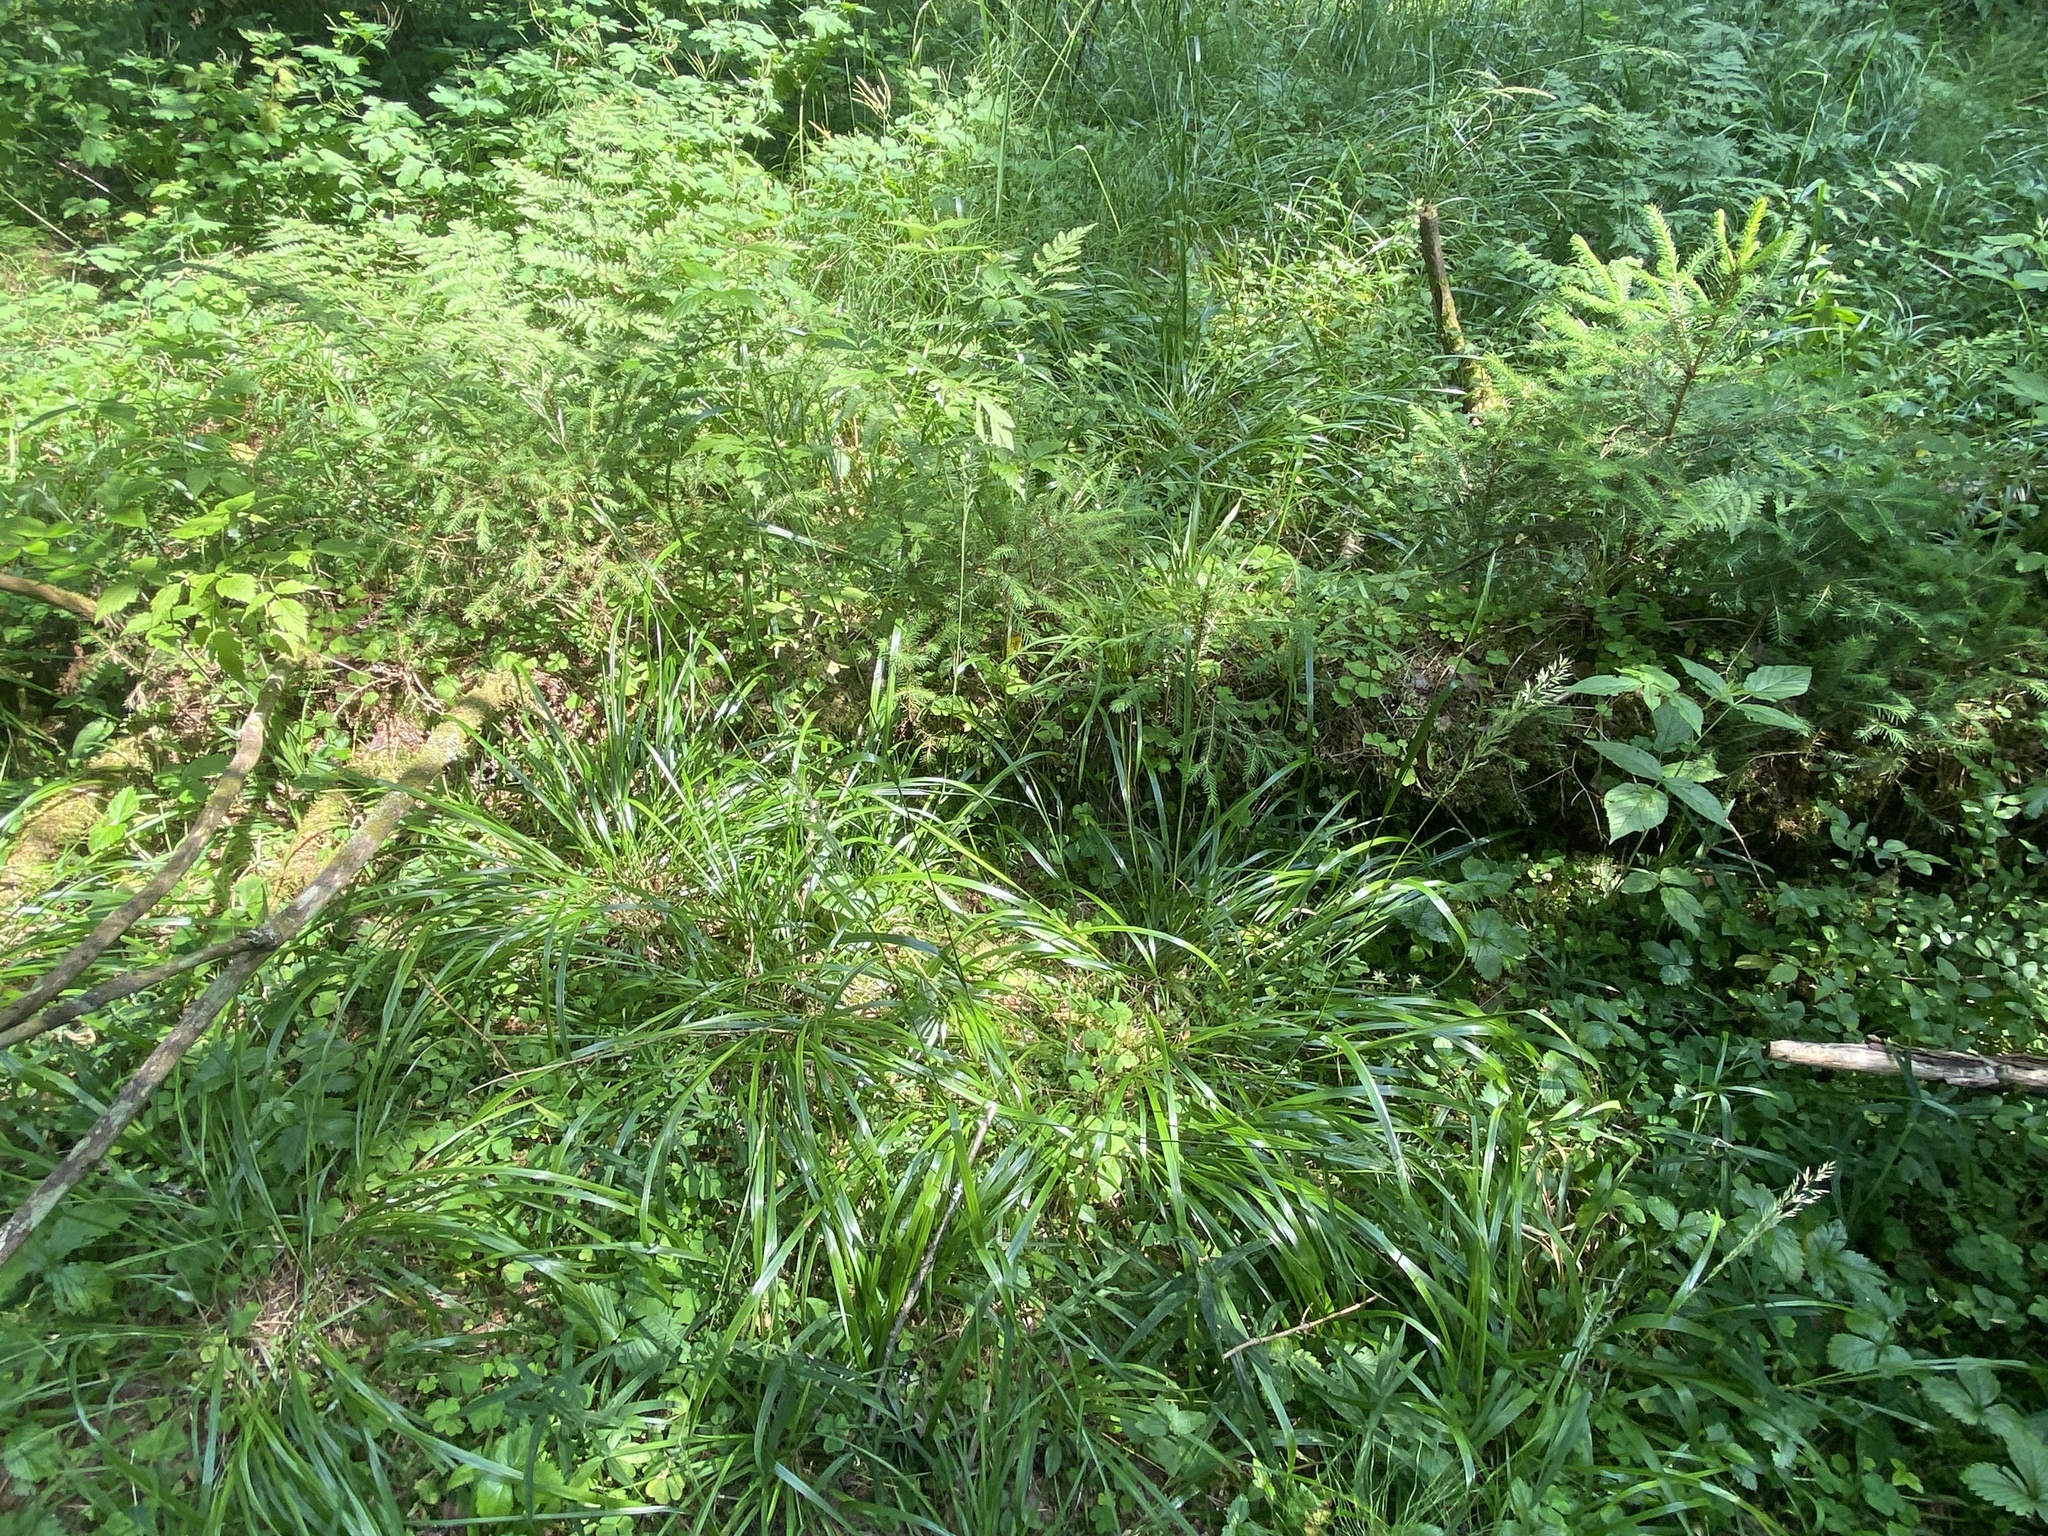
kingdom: Plantae
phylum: Tracheophyta
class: Liliopsida
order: Poales
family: Poaceae
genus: Calamagrostis
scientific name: Calamagrostis arundinacea
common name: Metskastik
